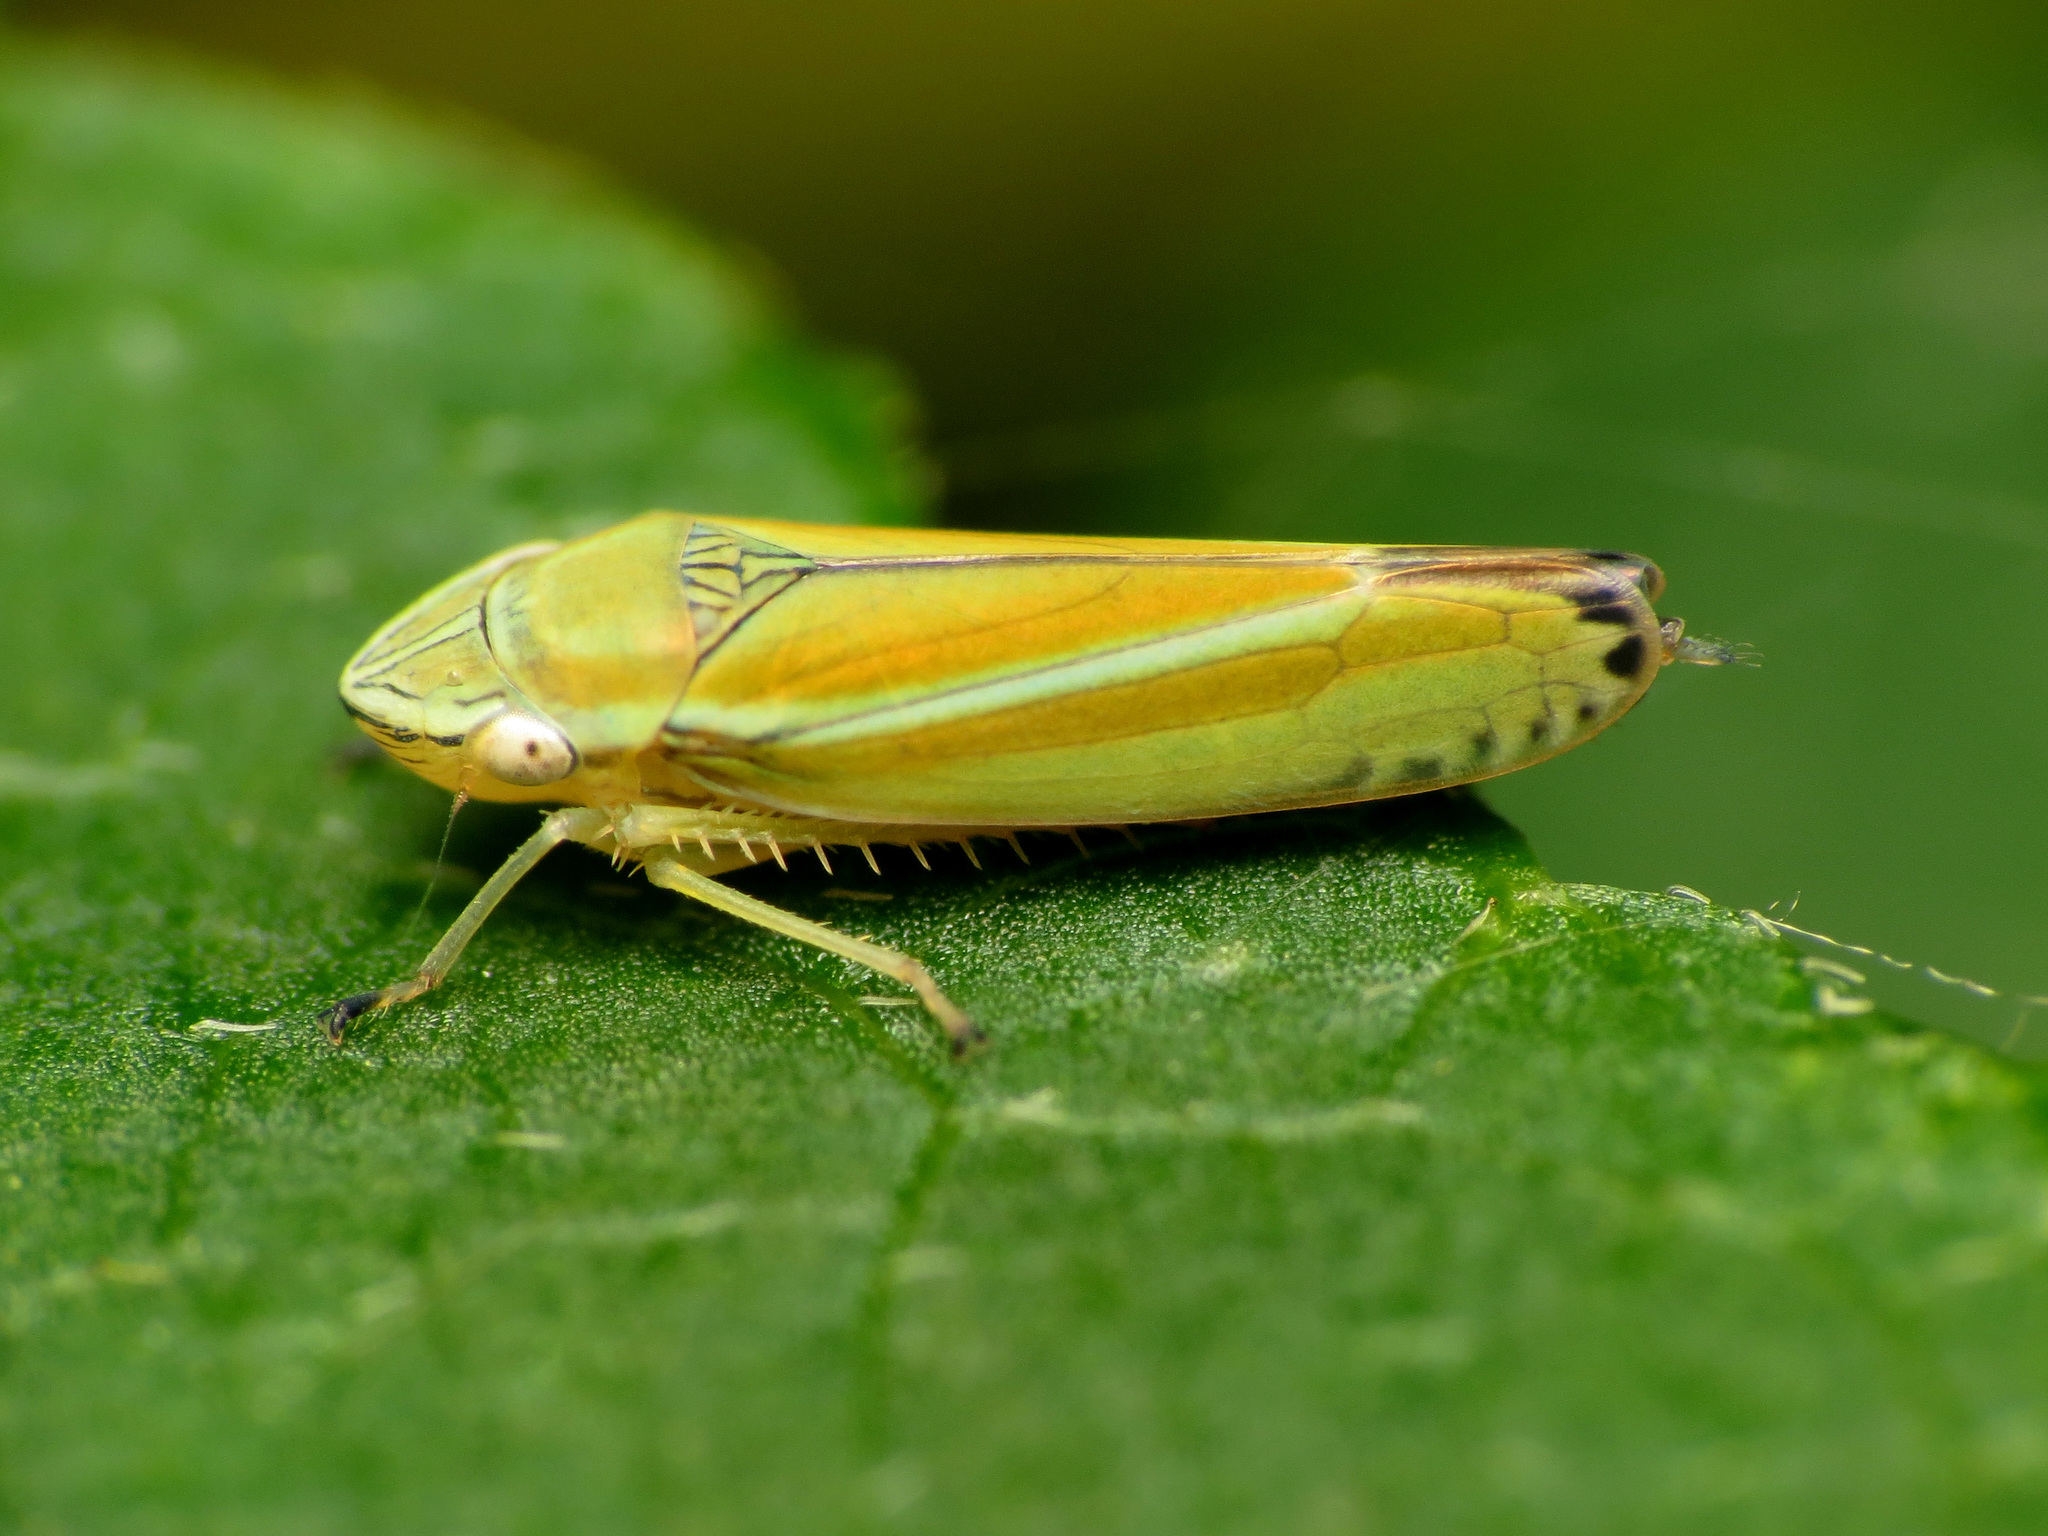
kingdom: Animalia
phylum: Arthropoda
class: Insecta
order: Hemiptera
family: Cicadellidae
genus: Graphocephala
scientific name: Graphocephala versuta
